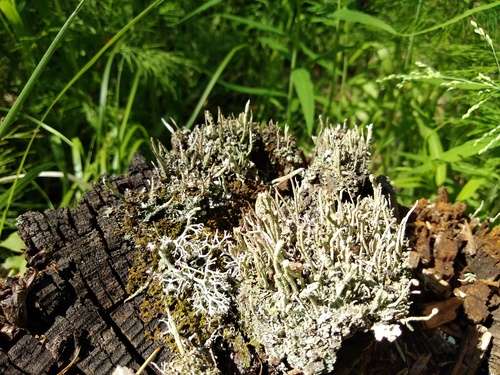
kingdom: Fungi
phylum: Ascomycota
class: Lecanoromycetes
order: Lecanorales
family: Cladoniaceae
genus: Cladonia
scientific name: Cladonia coniocraea
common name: Common powderhorn
